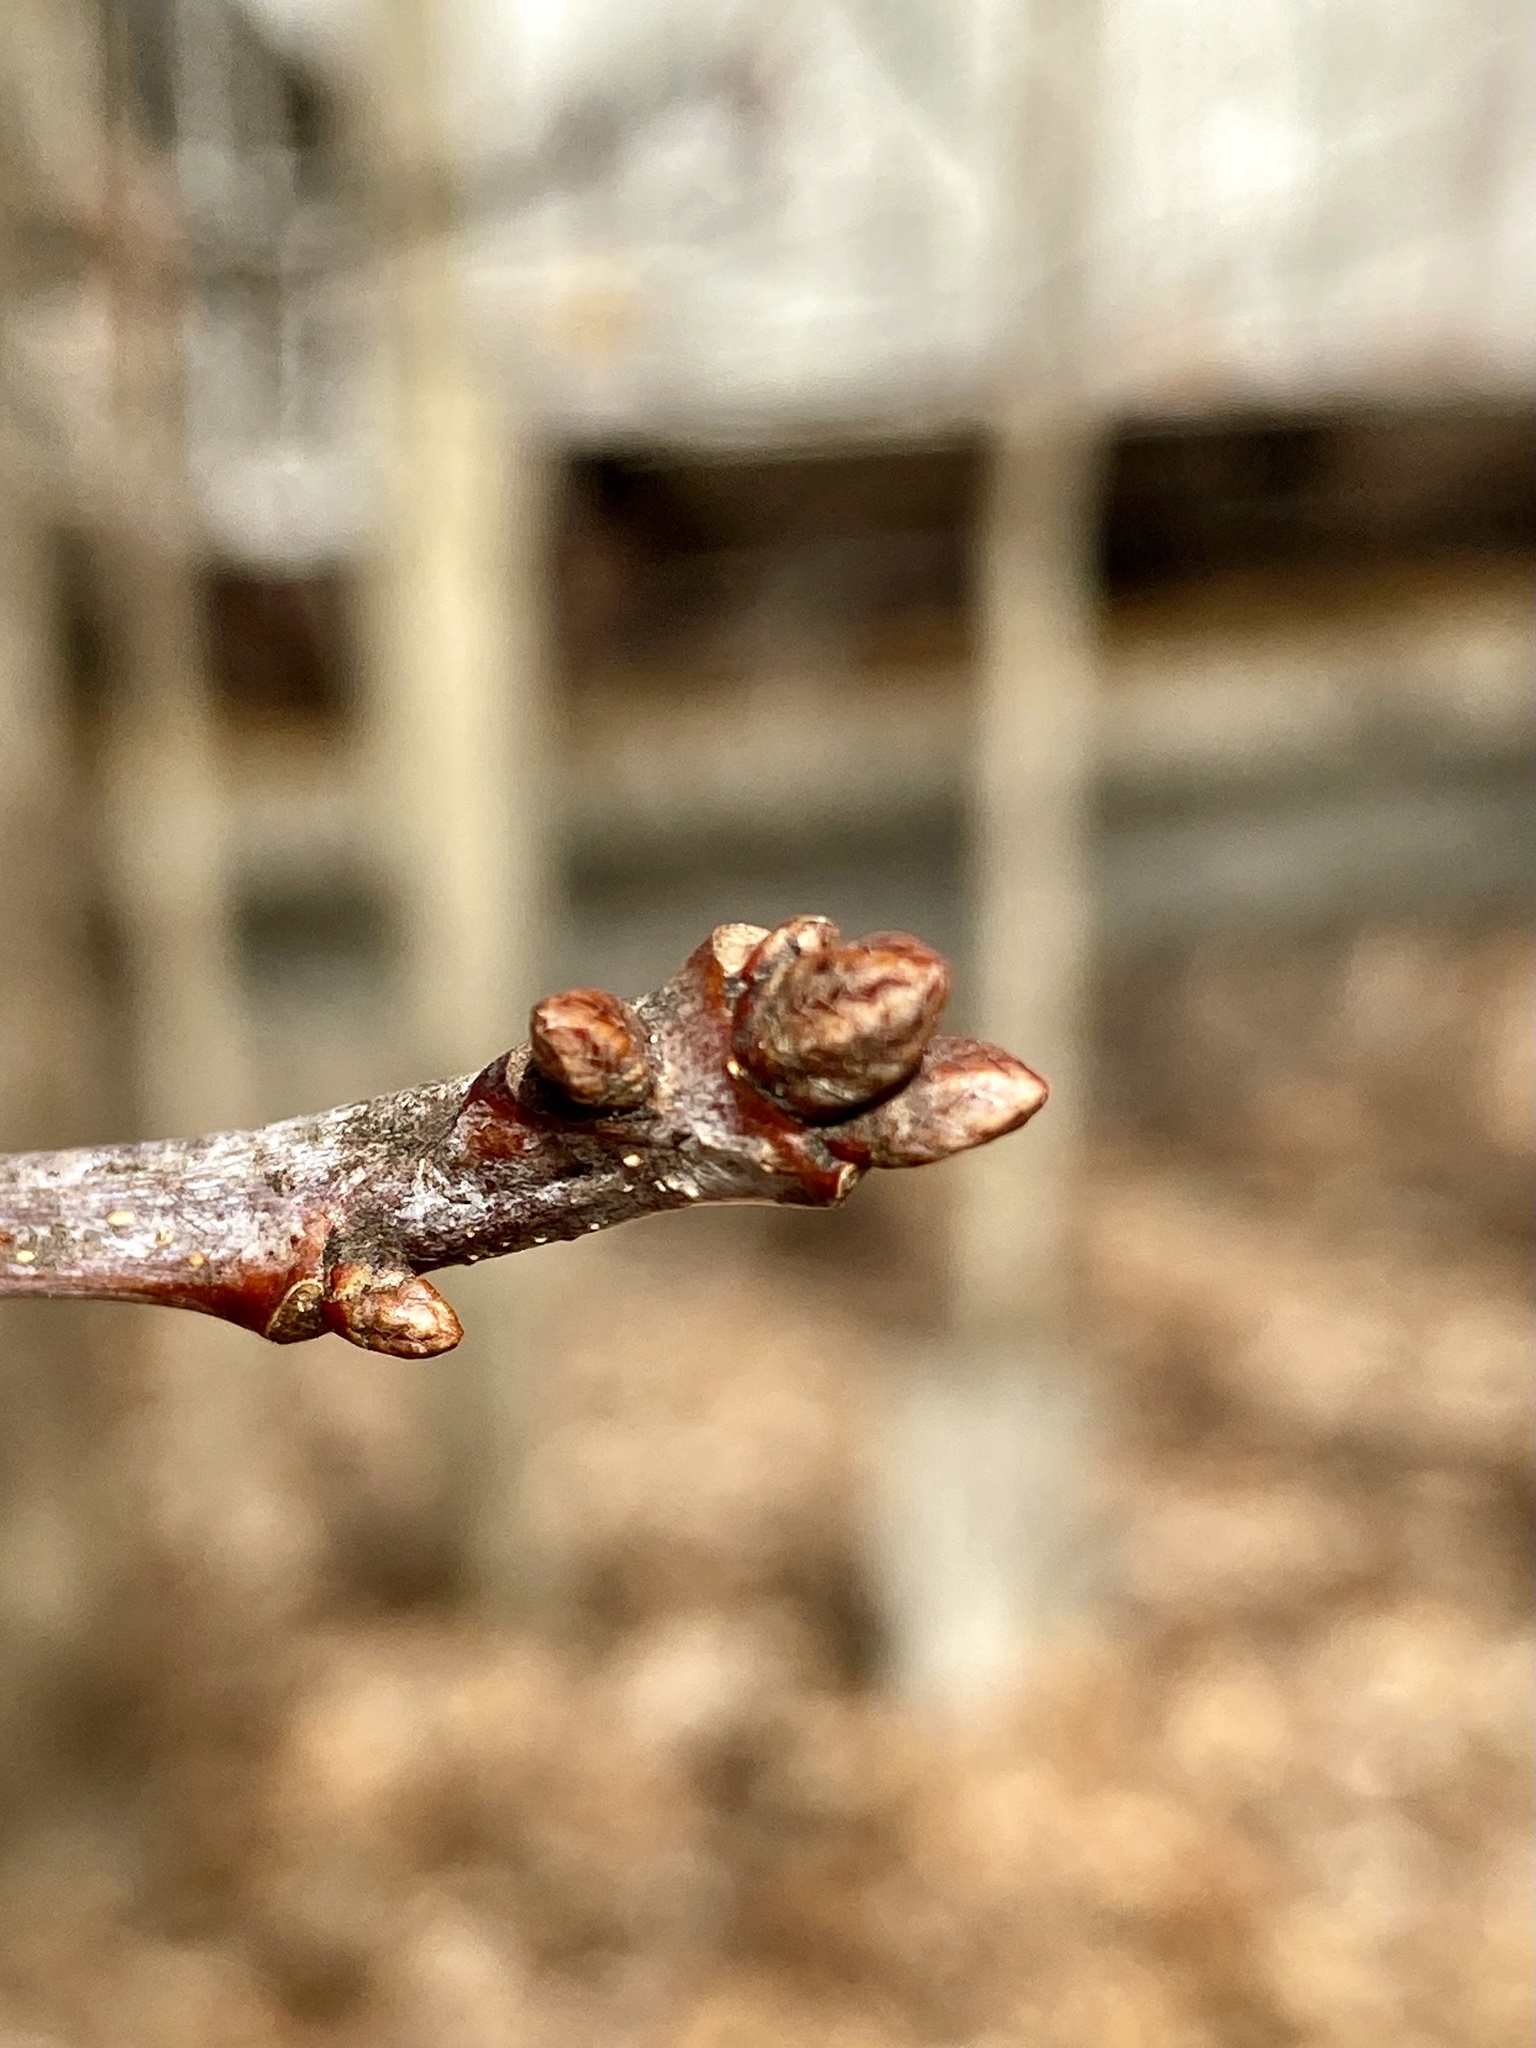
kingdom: Plantae
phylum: Tracheophyta
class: Magnoliopsida
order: Fagales
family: Fagaceae
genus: Quercus
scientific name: Quercus alba
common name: White oak
